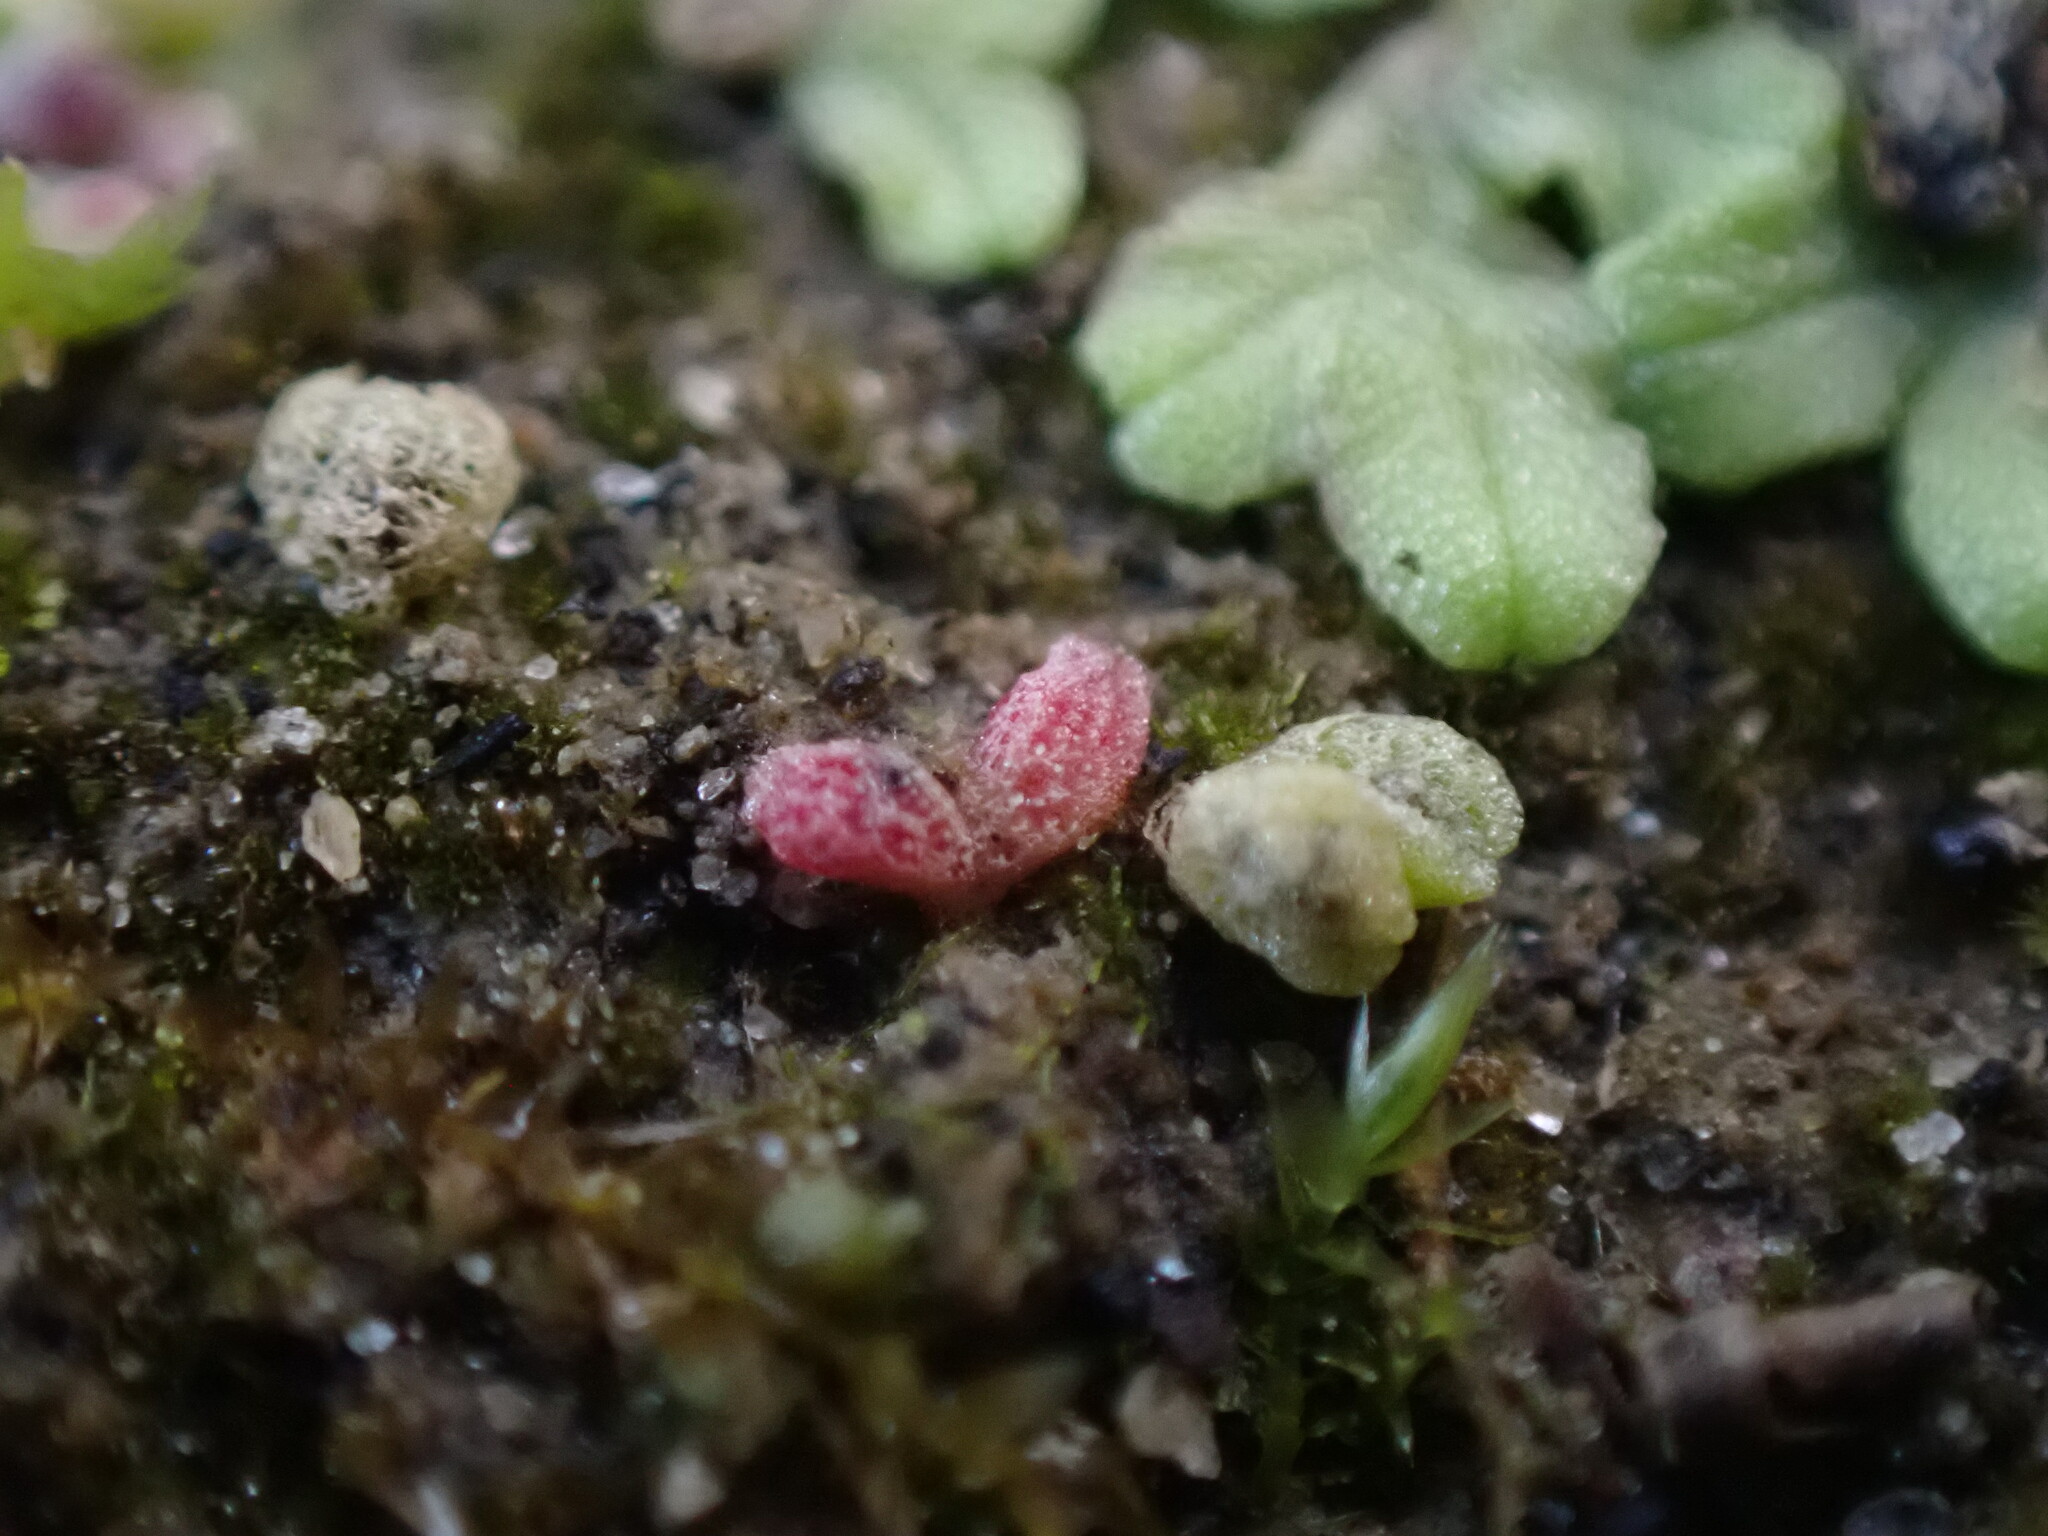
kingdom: Plantae
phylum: Marchantiophyta
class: Marchantiopsida
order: Marchantiales
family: Ricciaceae
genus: Riccia
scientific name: Riccia frostii
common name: Frost s crystalwort
